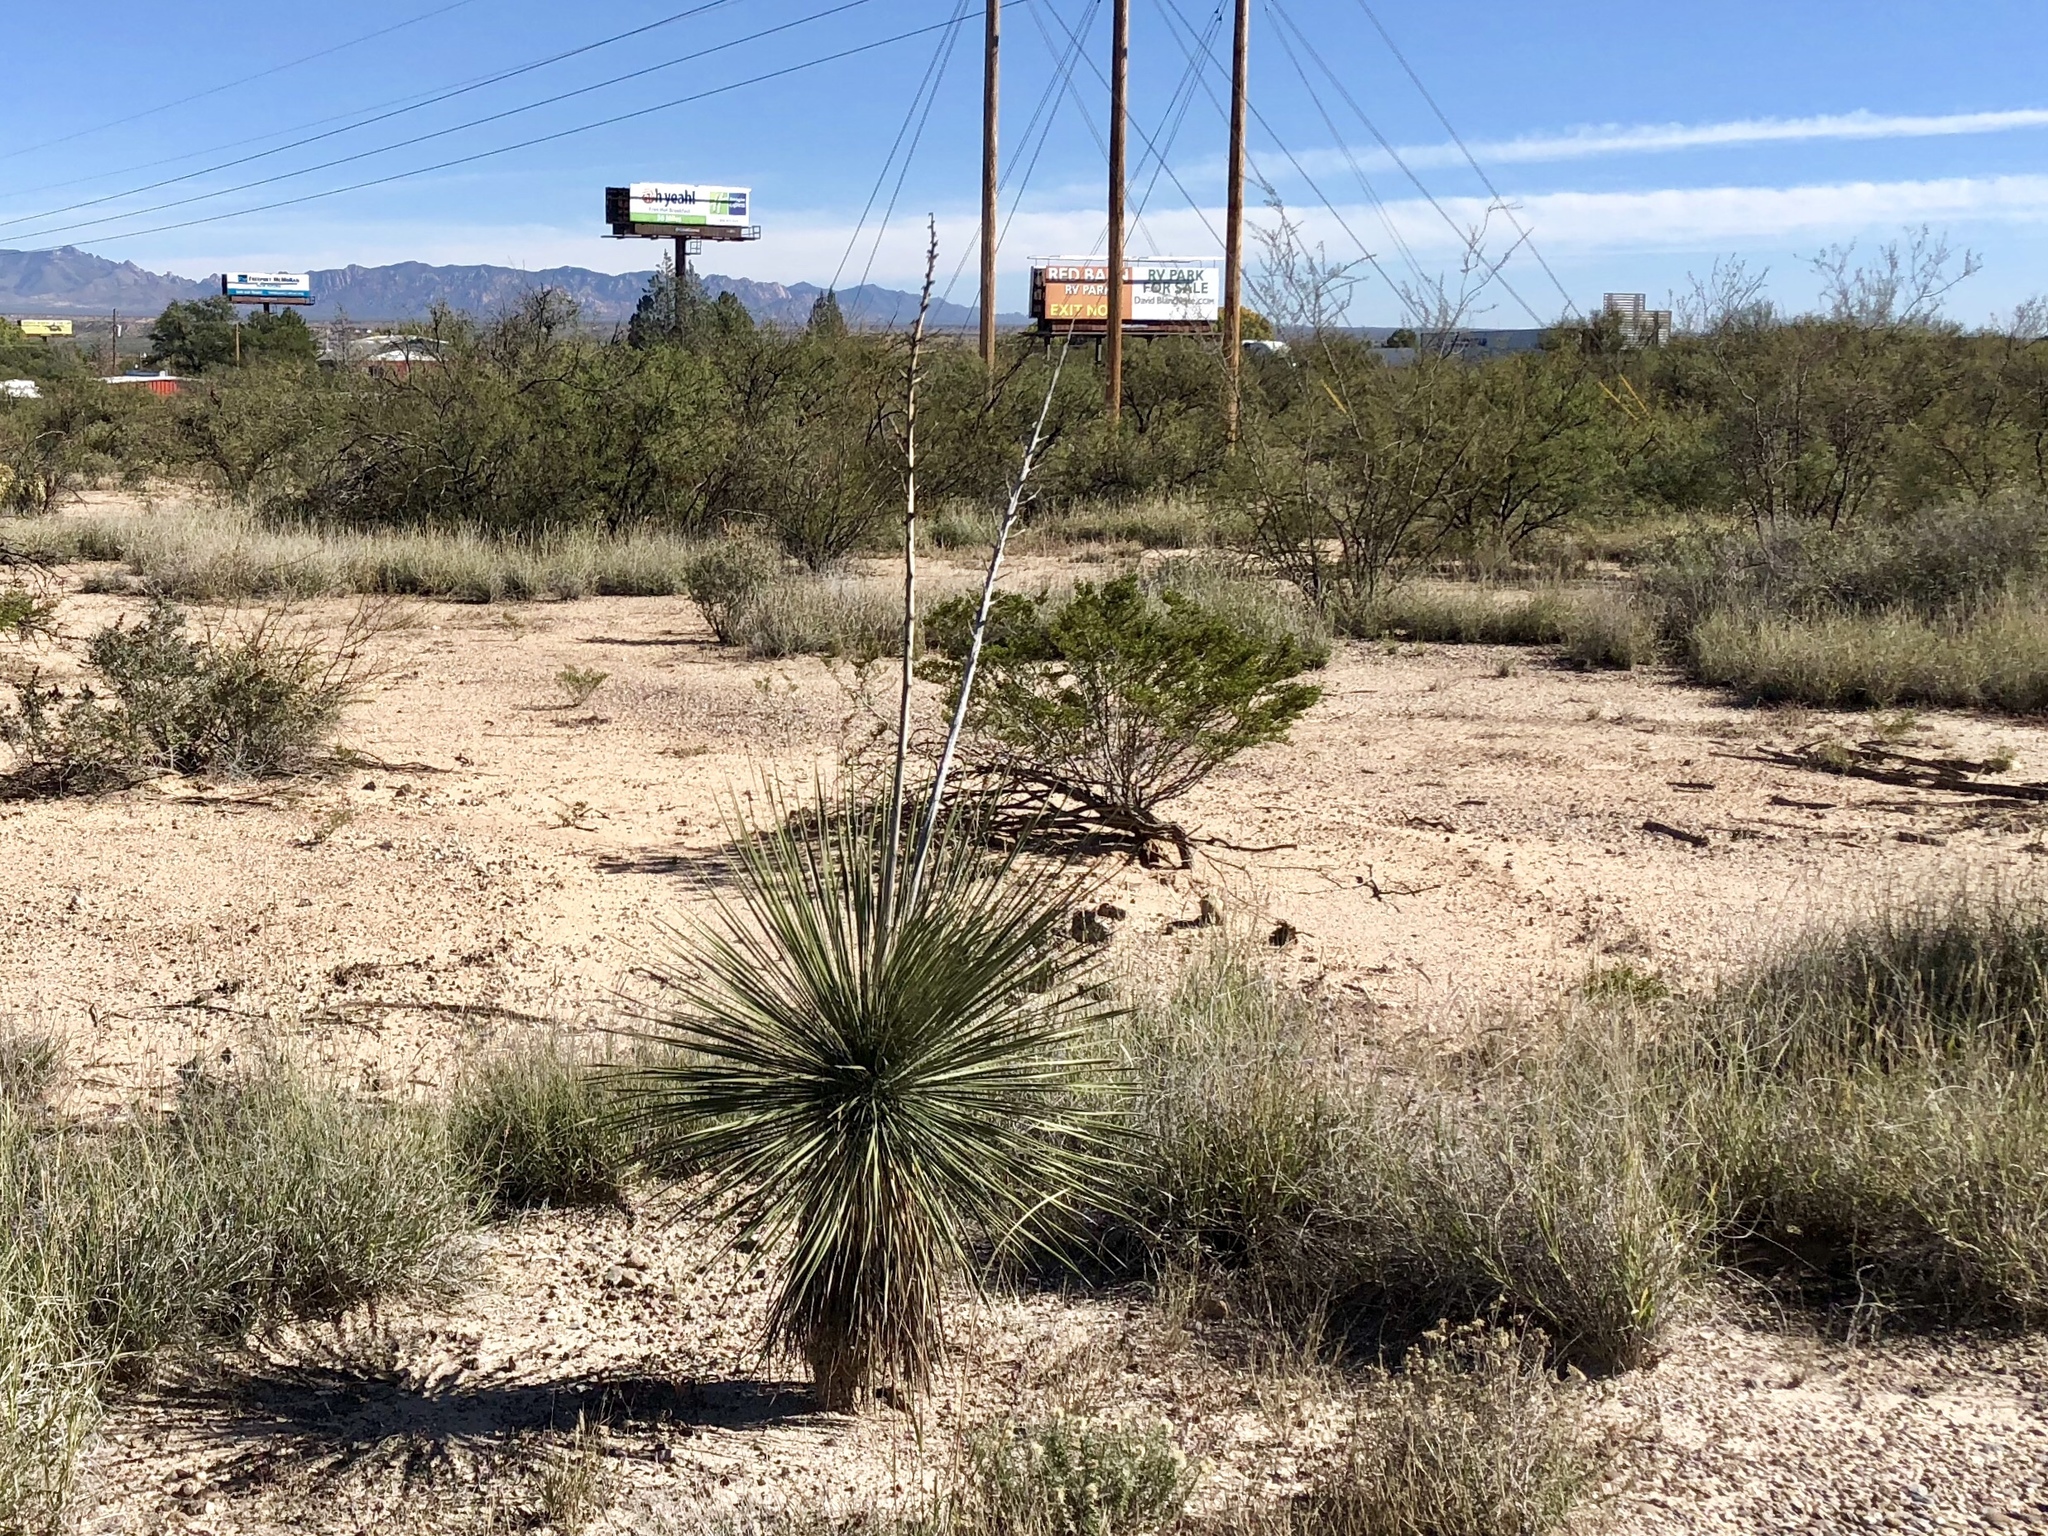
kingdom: Plantae
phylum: Tracheophyta
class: Liliopsida
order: Asparagales
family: Asparagaceae
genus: Yucca
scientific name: Yucca elata
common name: Palmella
